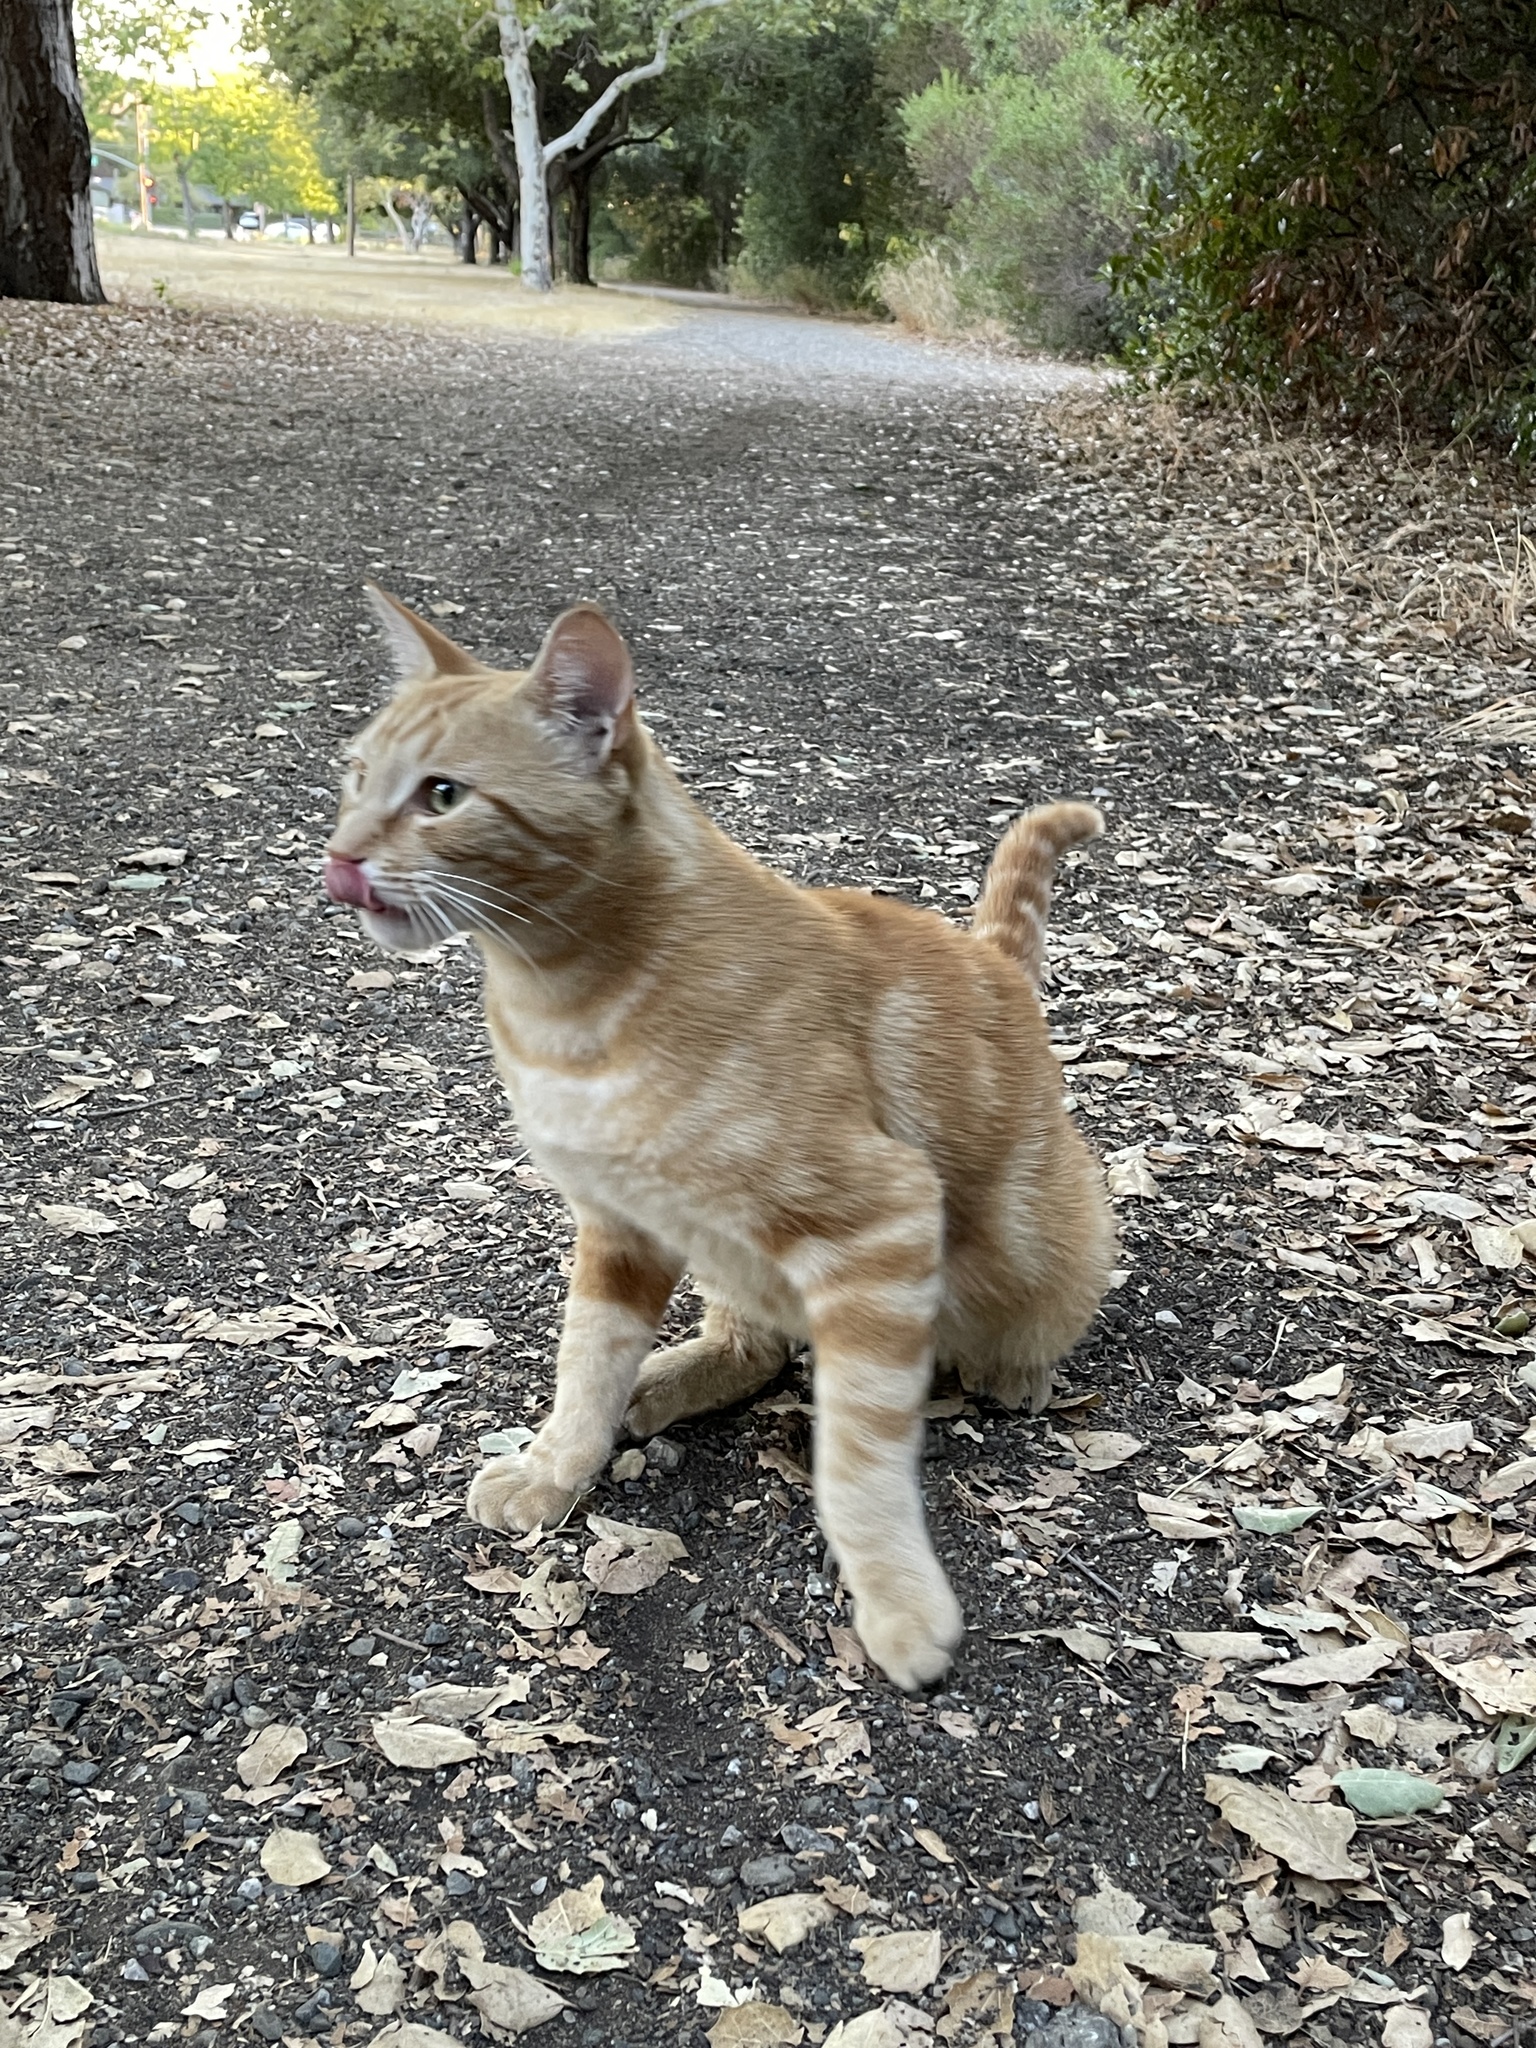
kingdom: Animalia
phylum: Chordata
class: Mammalia
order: Carnivora
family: Felidae
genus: Felis
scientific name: Felis catus
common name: Domestic cat
